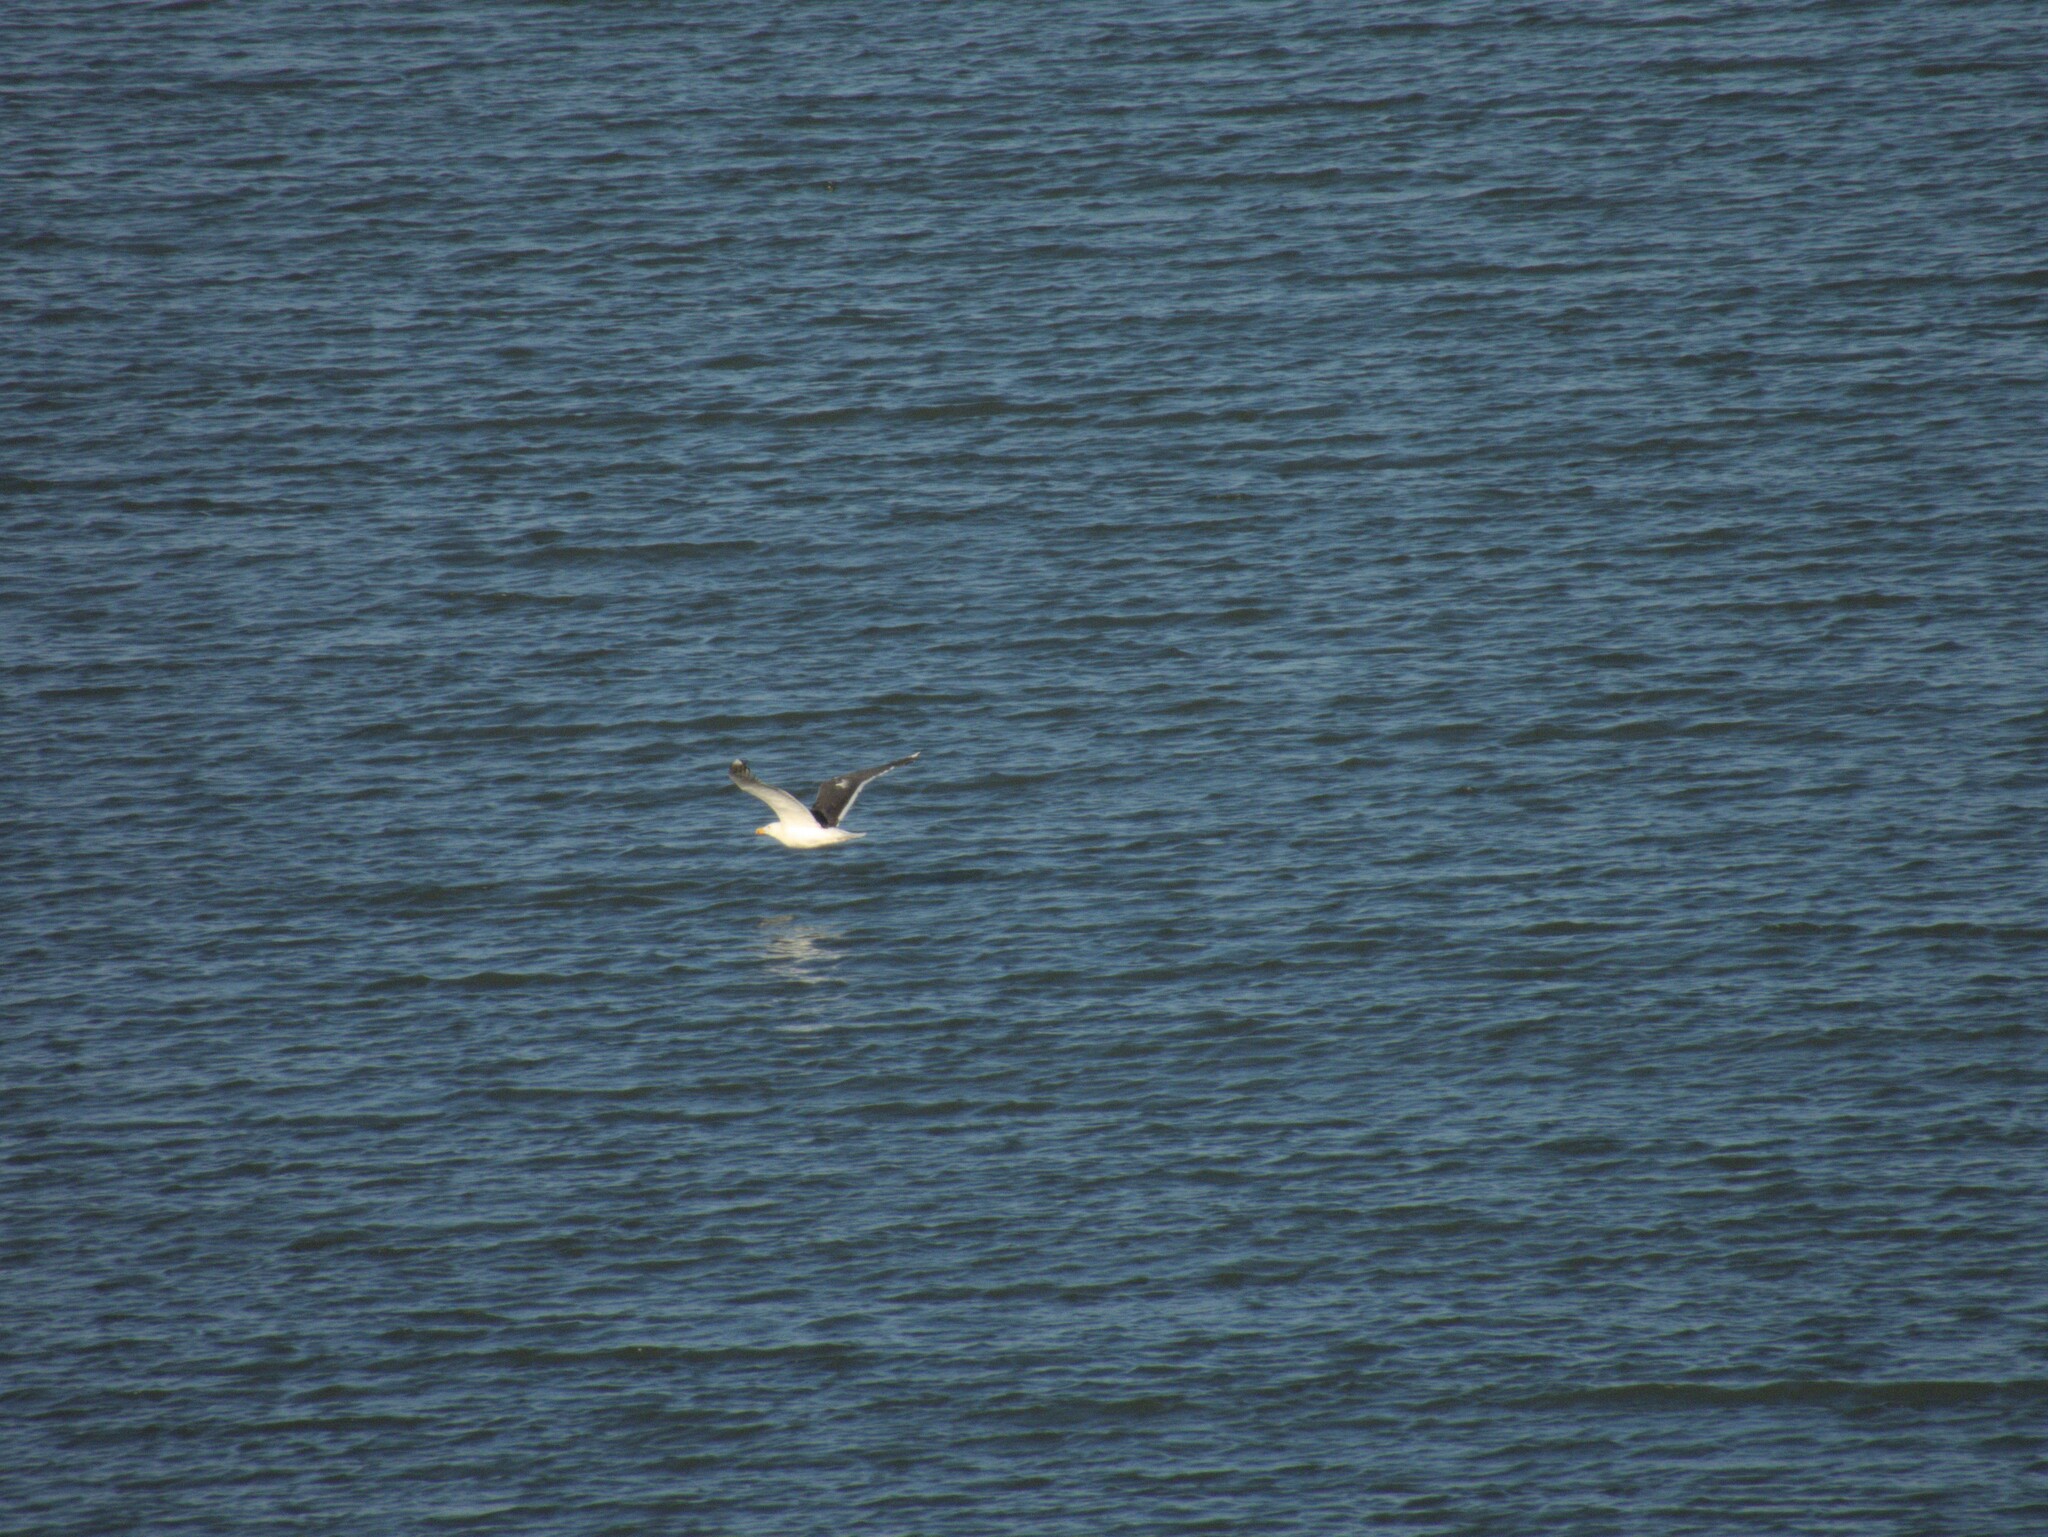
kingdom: Animalia
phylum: Chordata
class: Aves
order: Charadriiformes
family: Laridae
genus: Larus
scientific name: Larus marinus
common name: Great black-backed gull
